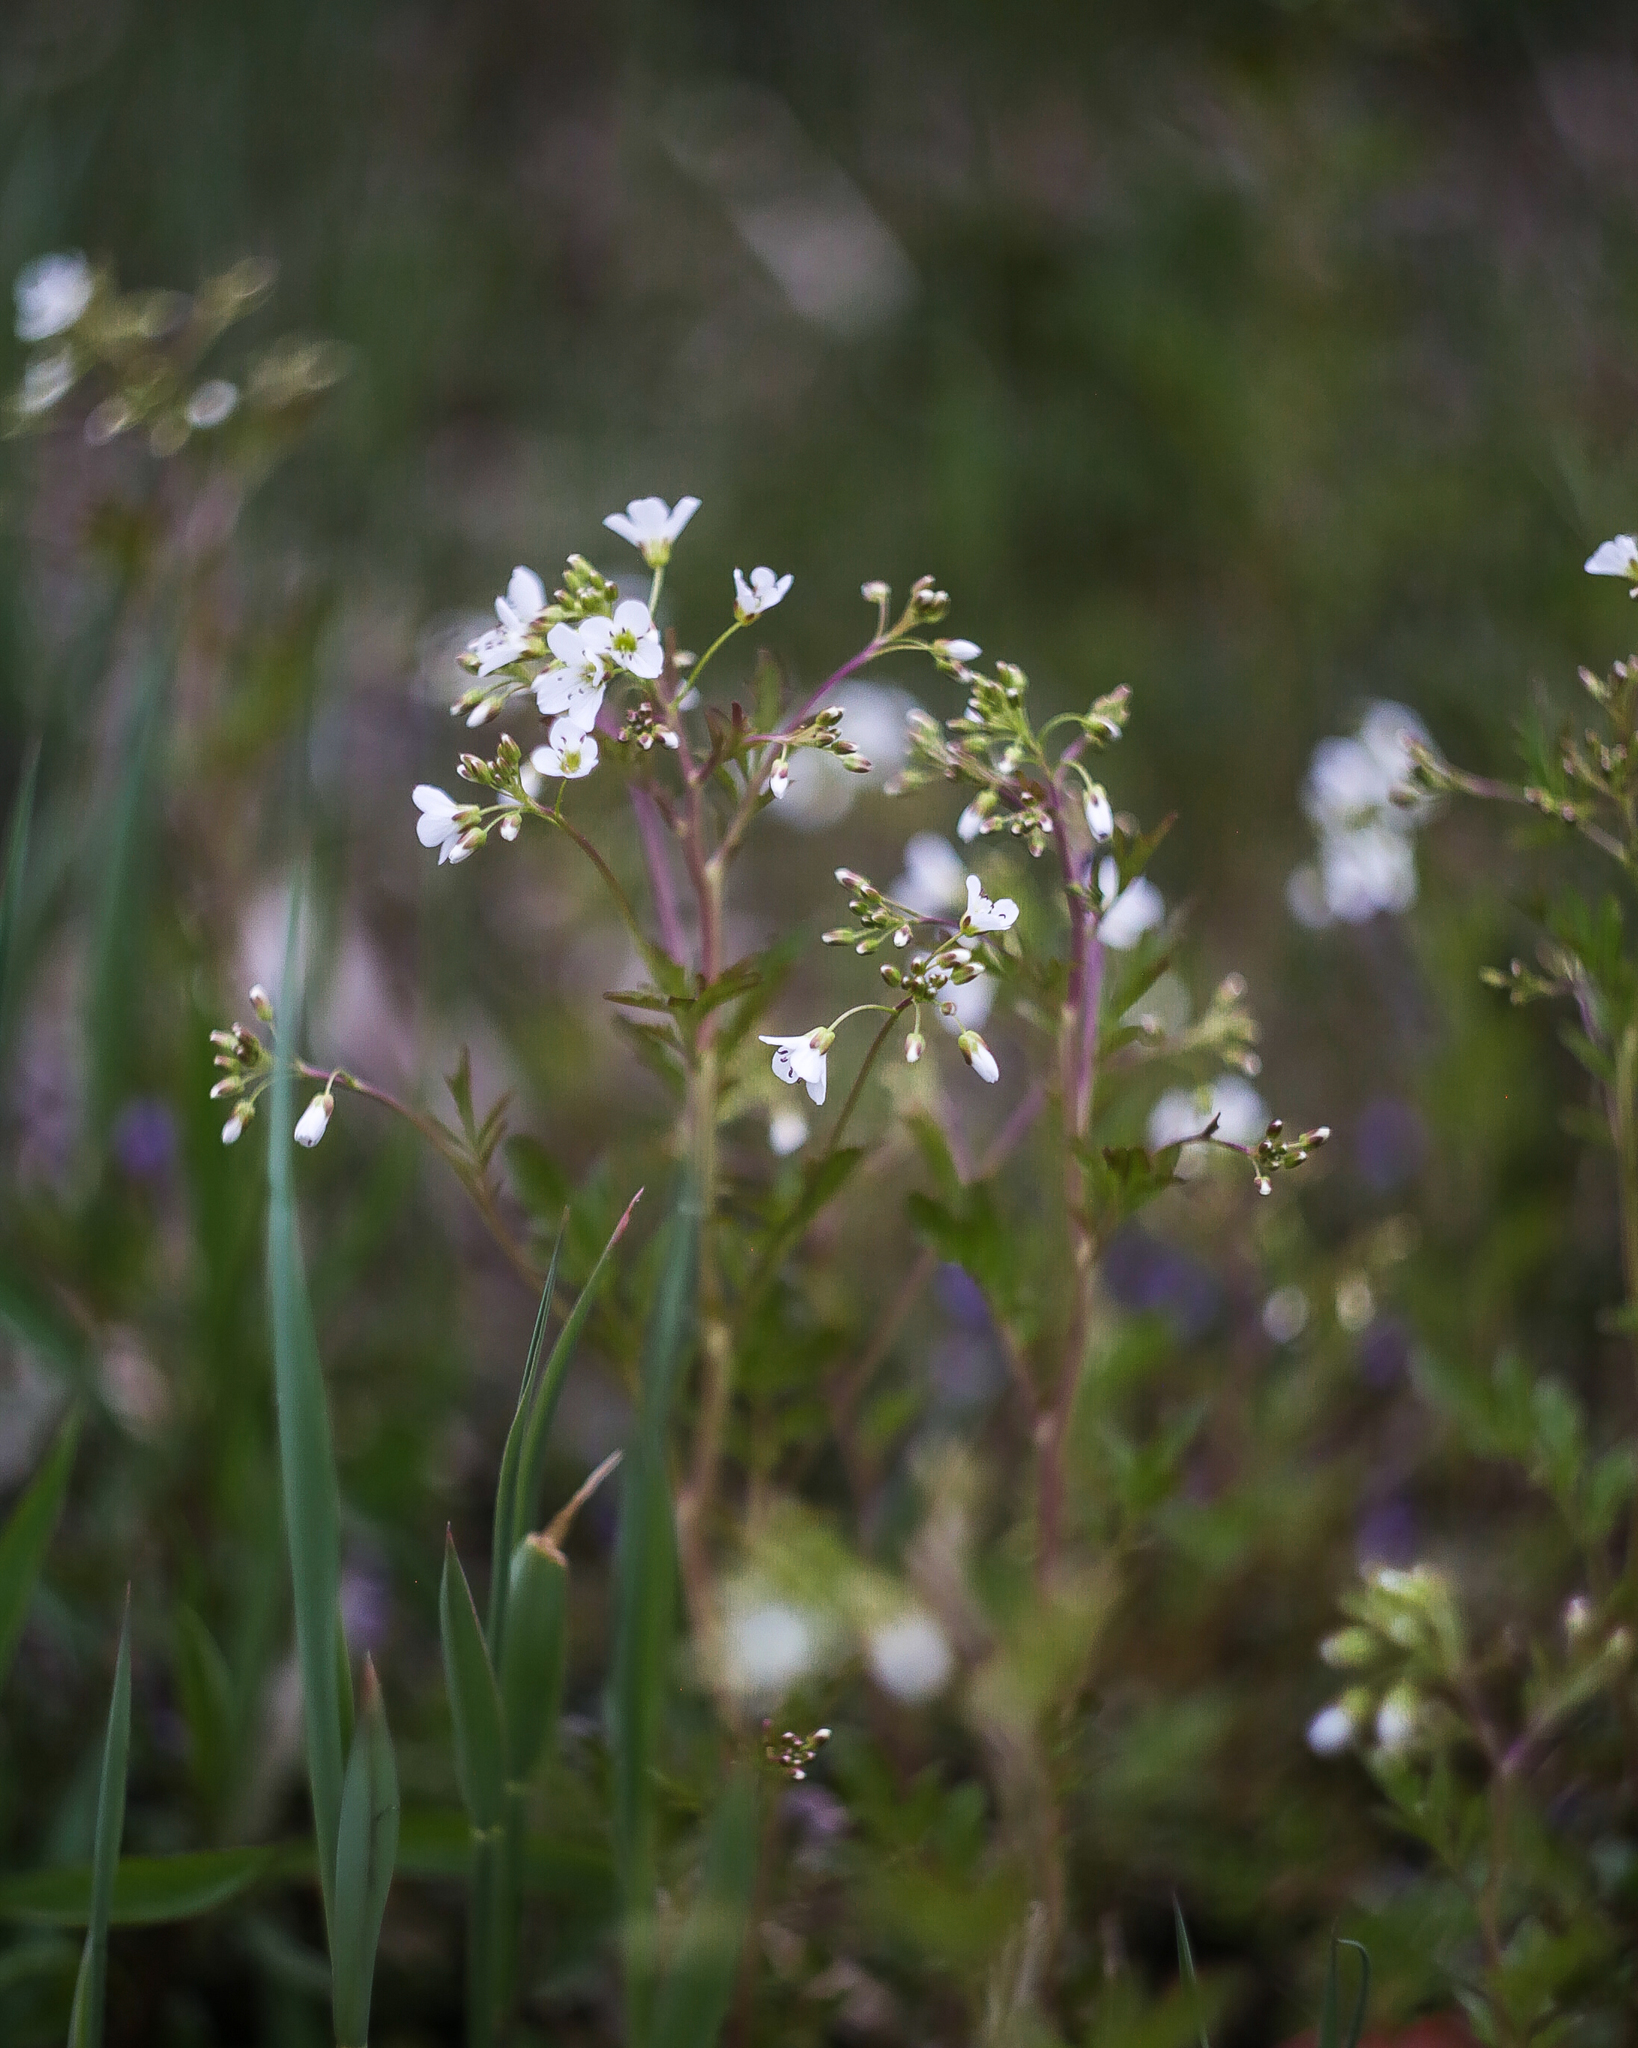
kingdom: Plantae
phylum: Tracheophyta
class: Magnoliopsida
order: Brassicales
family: Brassicaceae
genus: Cardamine
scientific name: Cardamine amara
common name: Large bitter-cress
